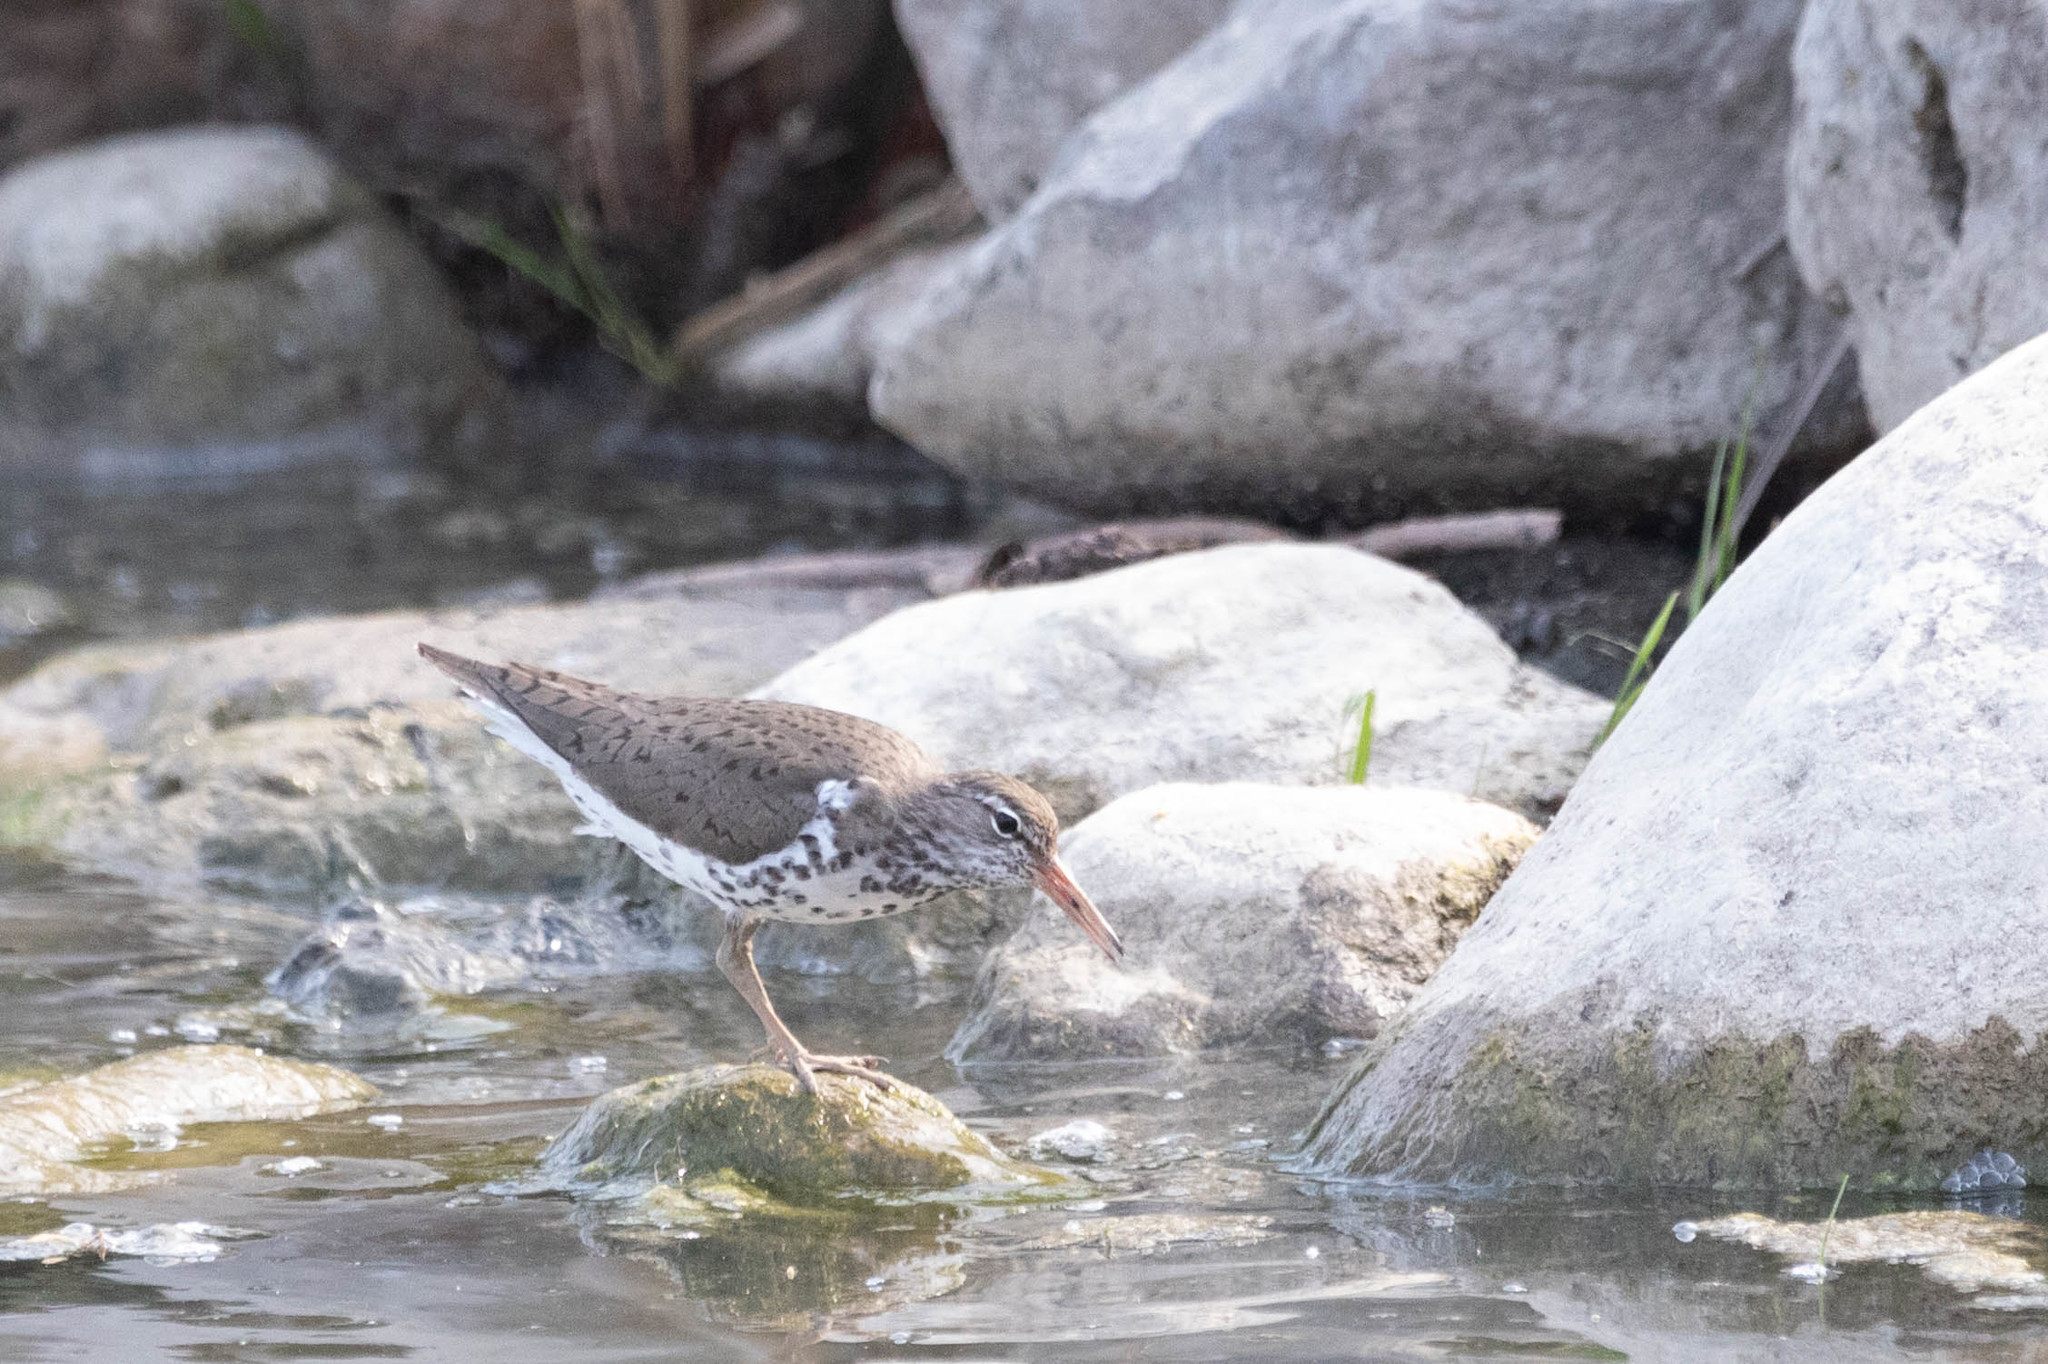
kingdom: Animalia
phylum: Chordata
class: Aves
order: Charadriiformes
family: Scolopacidae
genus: Actitis
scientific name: Actitis macularius
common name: Spotted sandpiper
